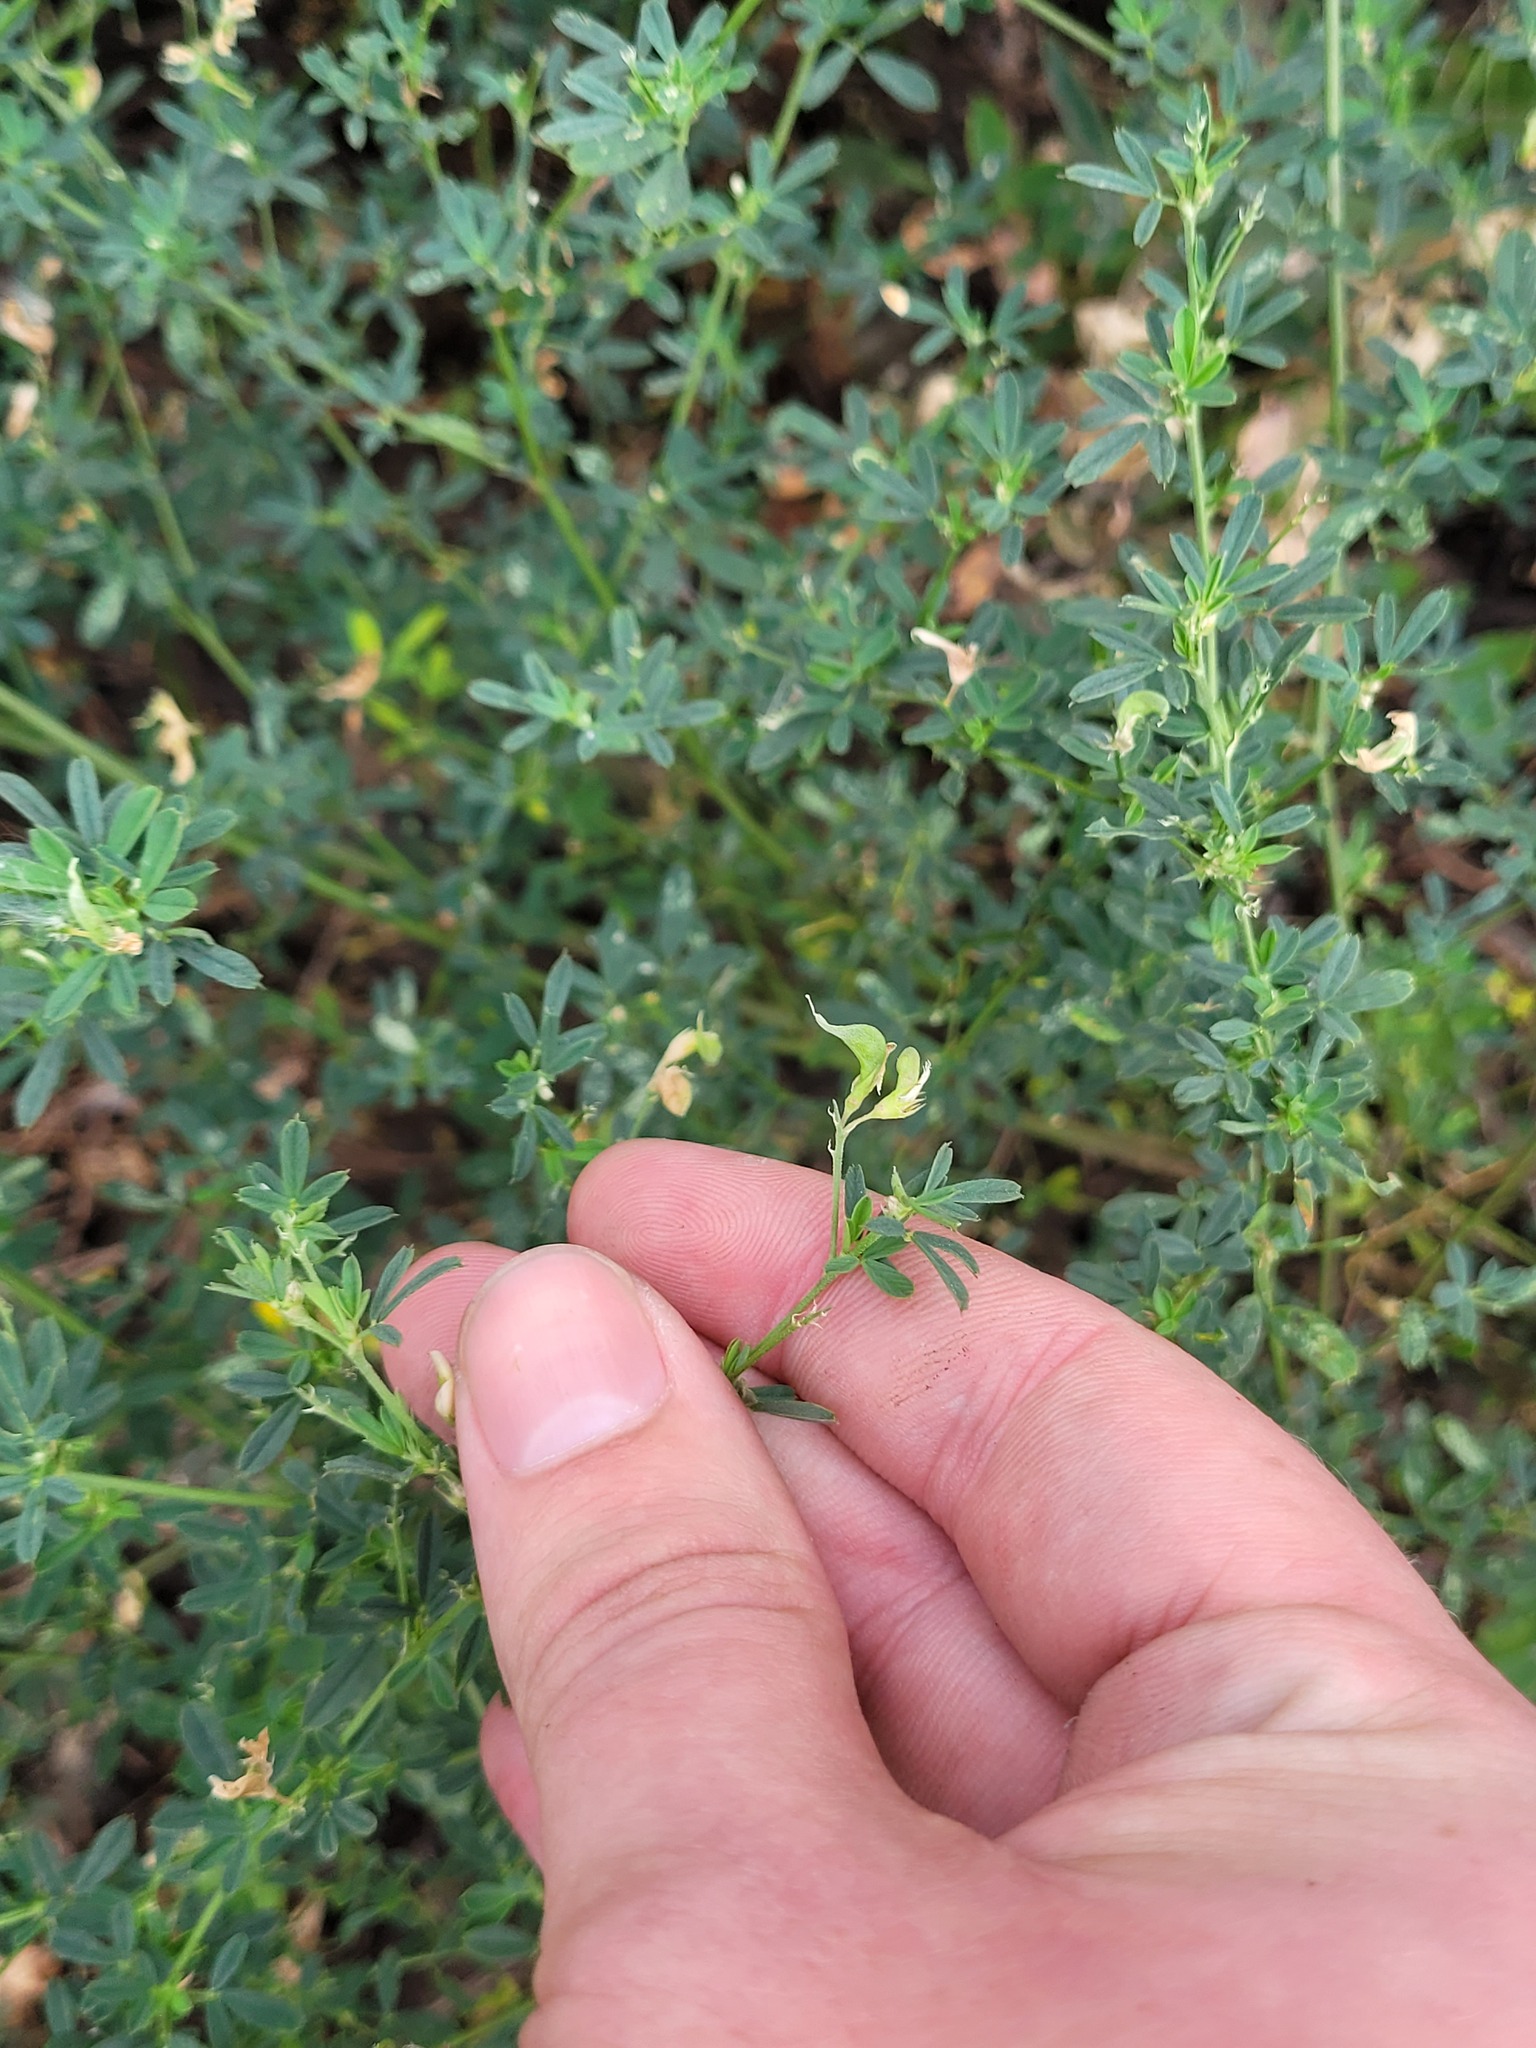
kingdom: Plantae
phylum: Tracheophyta
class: Magnoliopsida
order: Fabales
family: Fabaceae
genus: Medicago
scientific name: Medicago varia
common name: Sand lucerne
